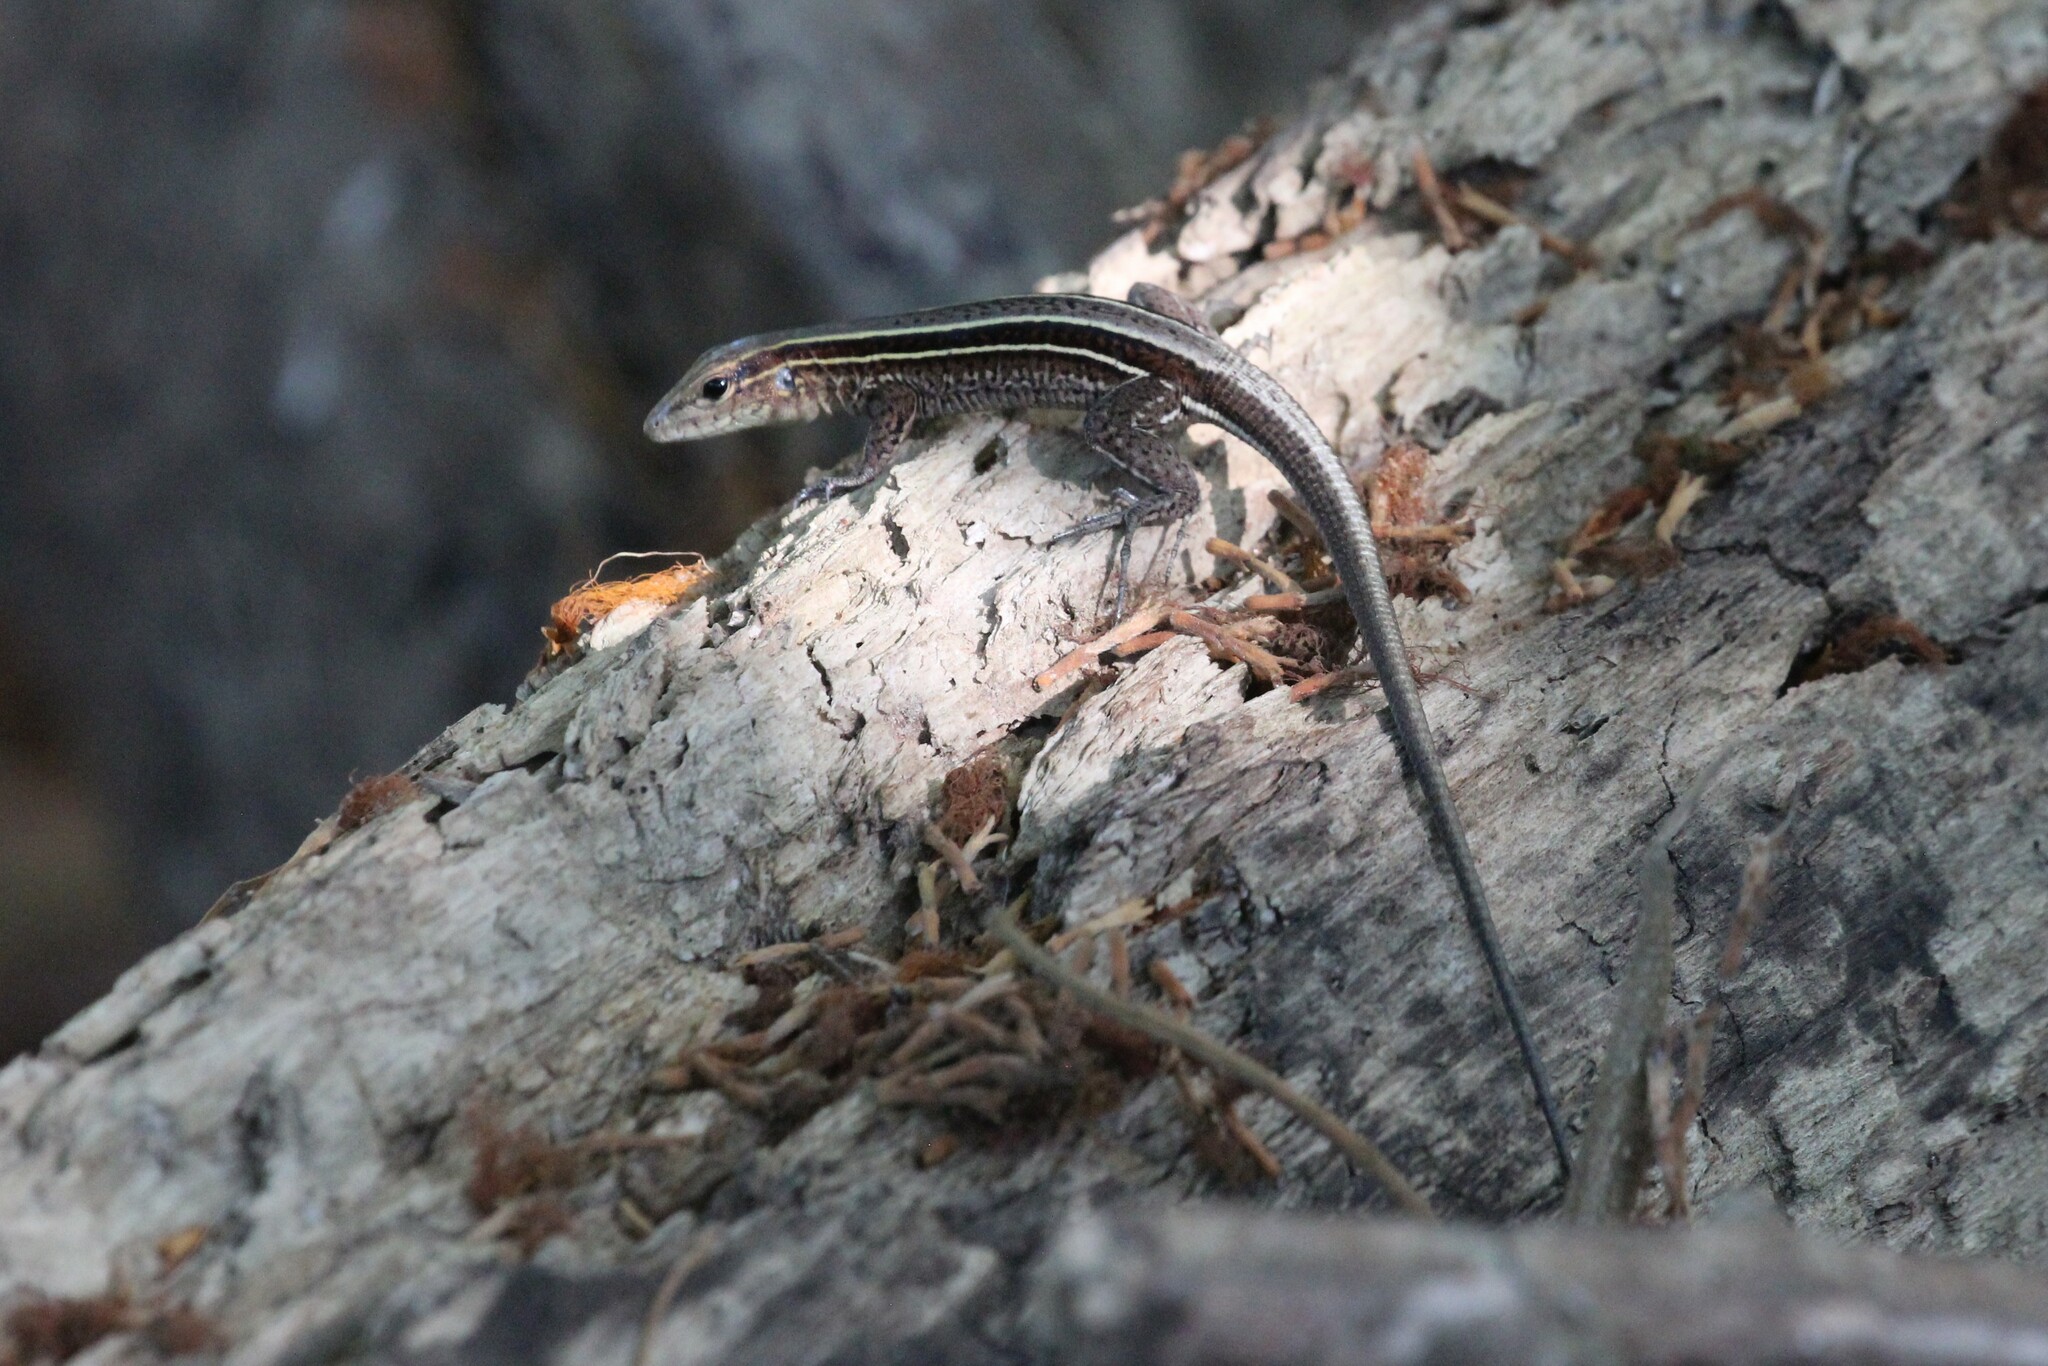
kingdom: Animalia
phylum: Chordata
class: Squamata
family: Teiidae
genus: Holcosus
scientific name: Holcosus quadrilineatus
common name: Four-lined ameiva
